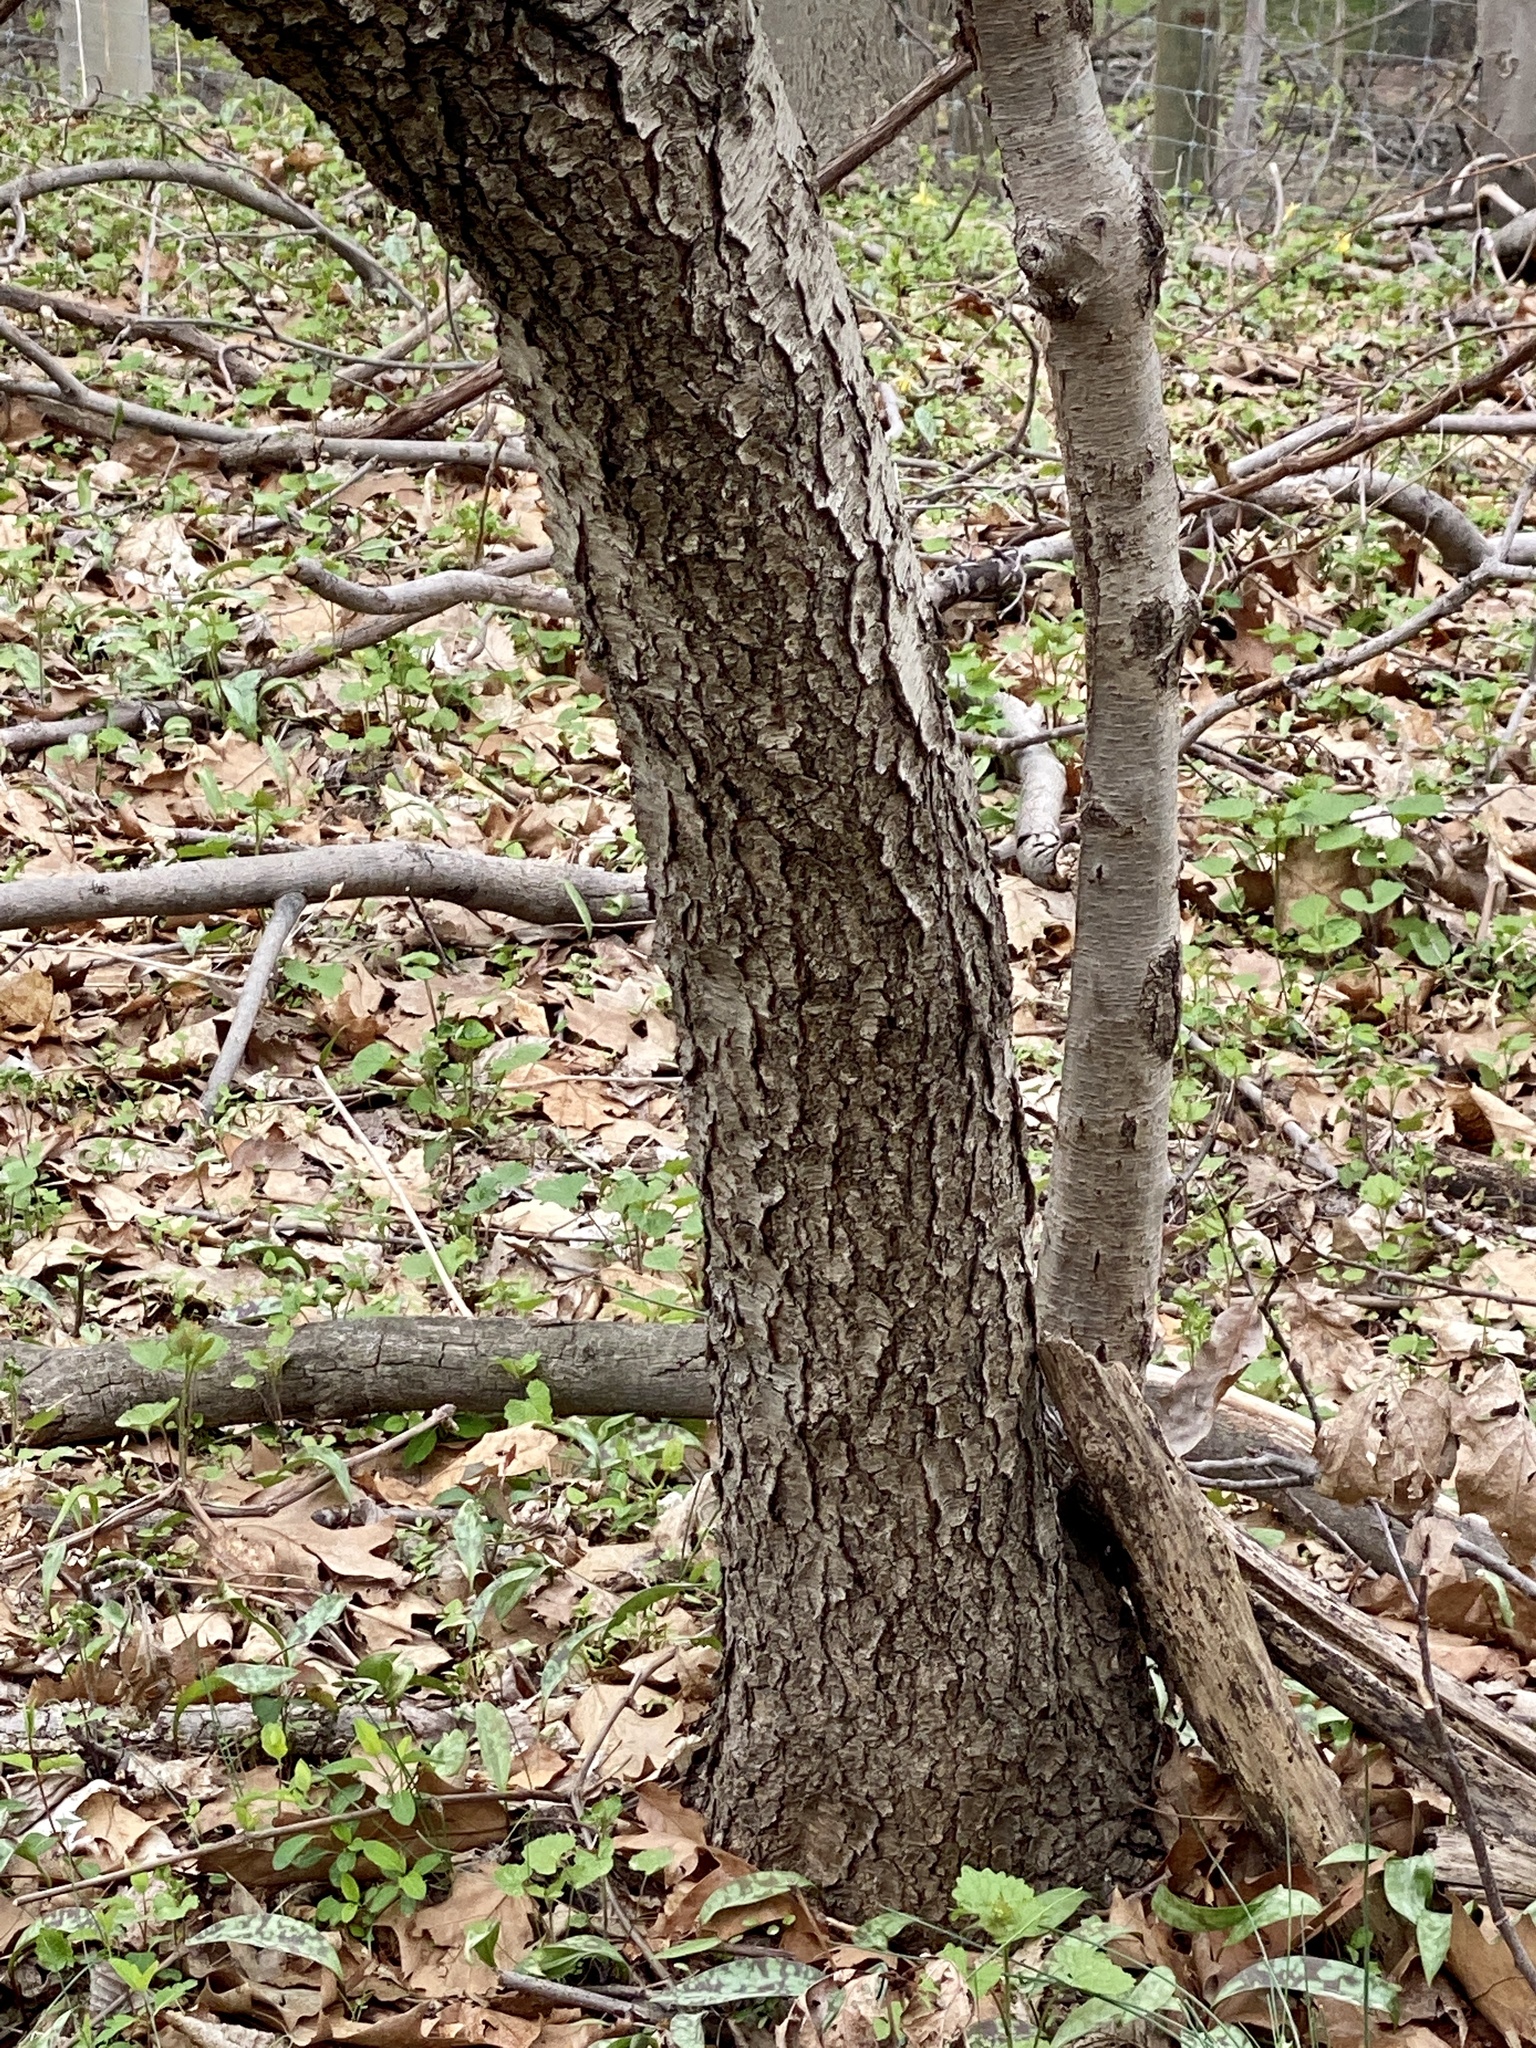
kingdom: Plantae
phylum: Tracheophyta
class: Magnoliopsida
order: Rosales
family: Rosaceae
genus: Prunus
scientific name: Prunus serotina
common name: Black cherry
